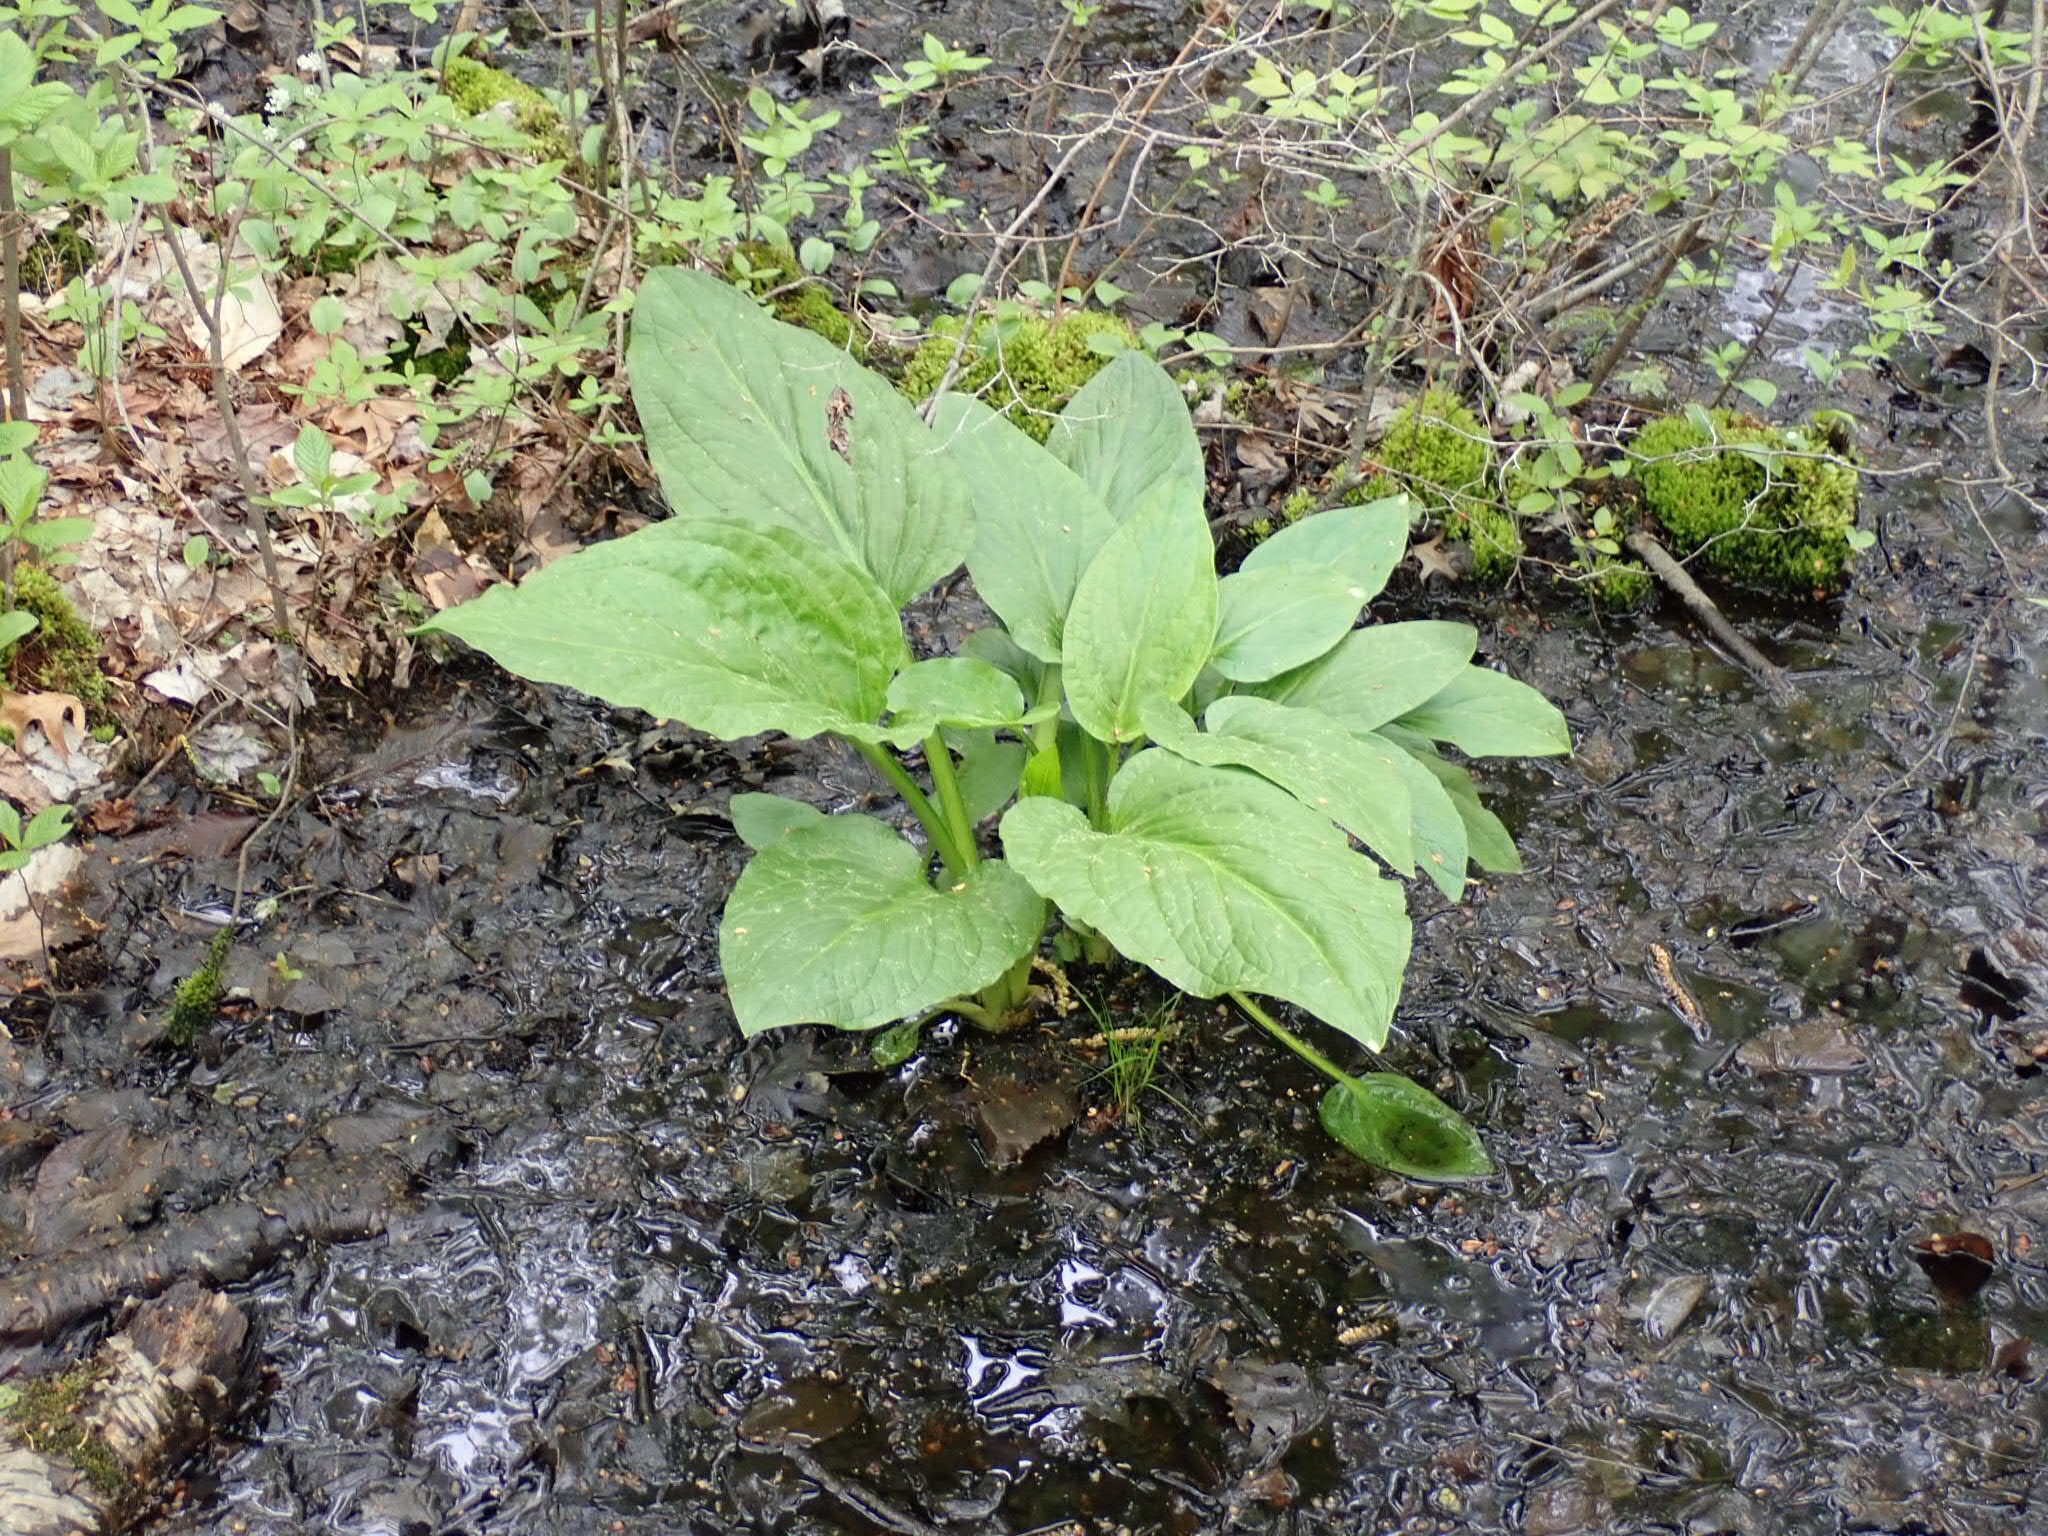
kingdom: Plantae
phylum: Tracheophyta
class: Liliopsida
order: Alismatales
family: Araceae
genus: Symplocarpus
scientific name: Symplocarpus foetidus
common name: Eastern skunk cabbage
